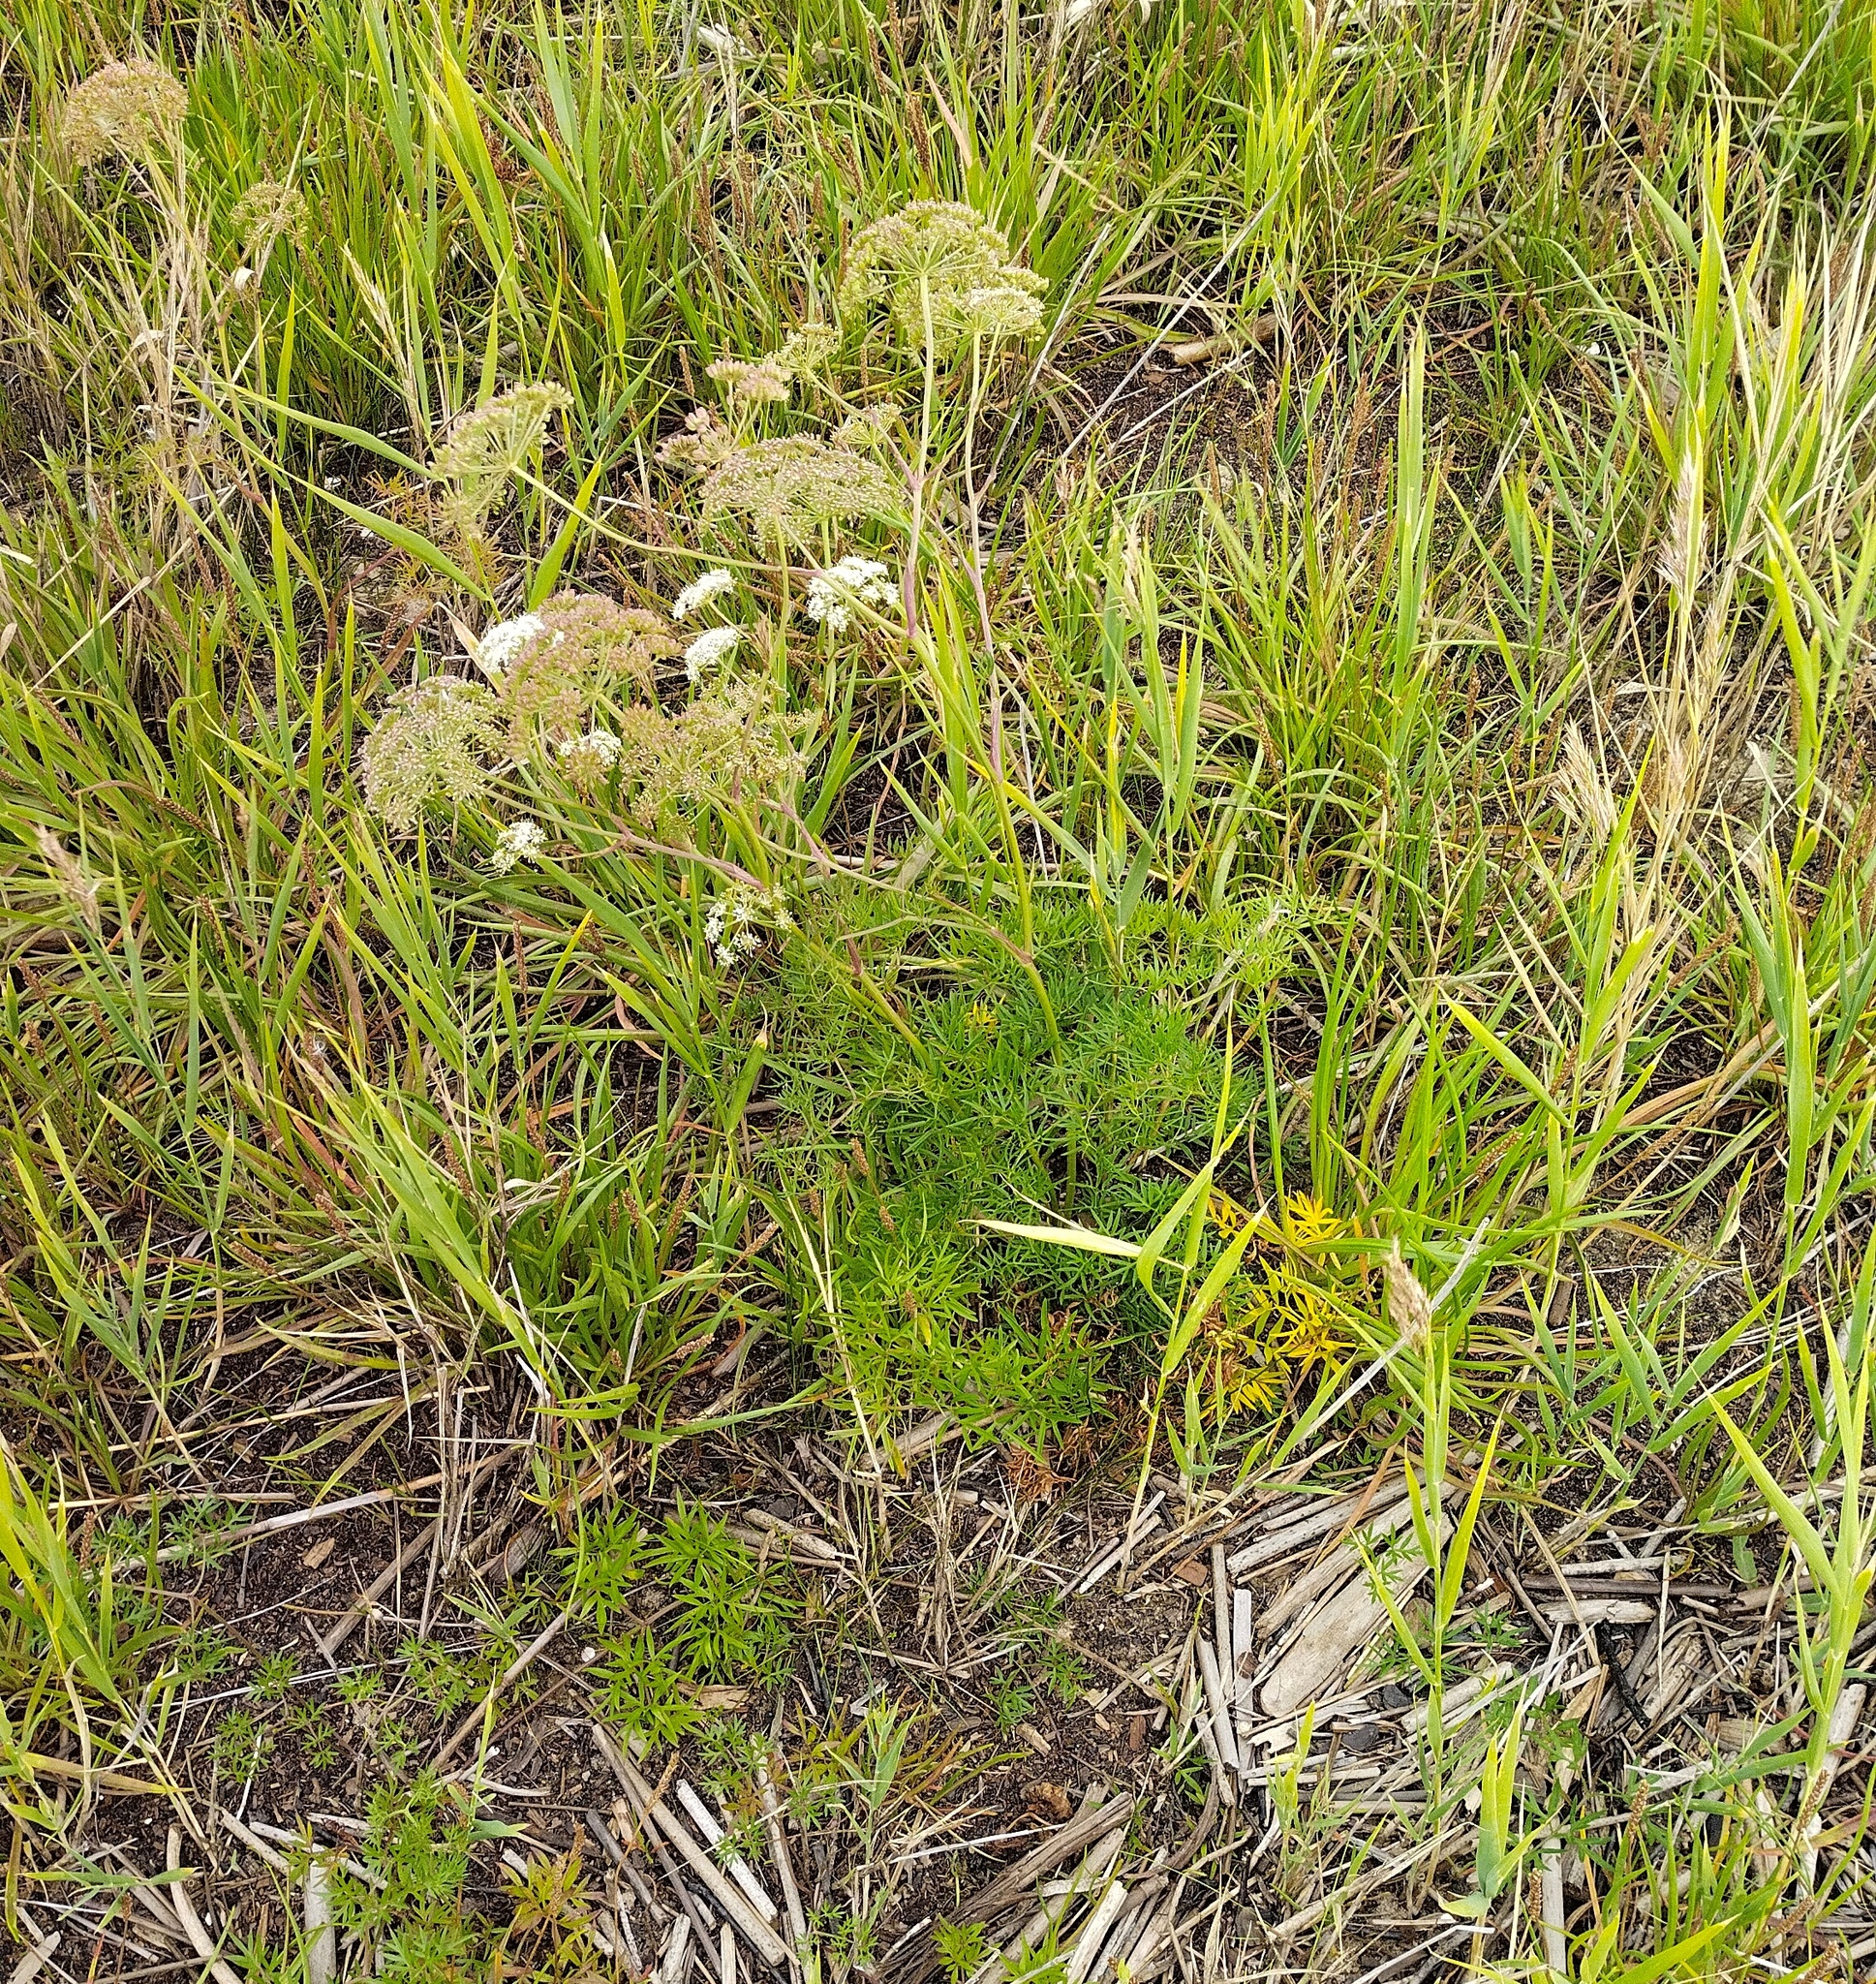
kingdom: Plantae
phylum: Tracheophyta
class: Magnoliopsida
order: Apiales
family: Apiaceae
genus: Cenolophium
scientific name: Cenolophium fischeri
